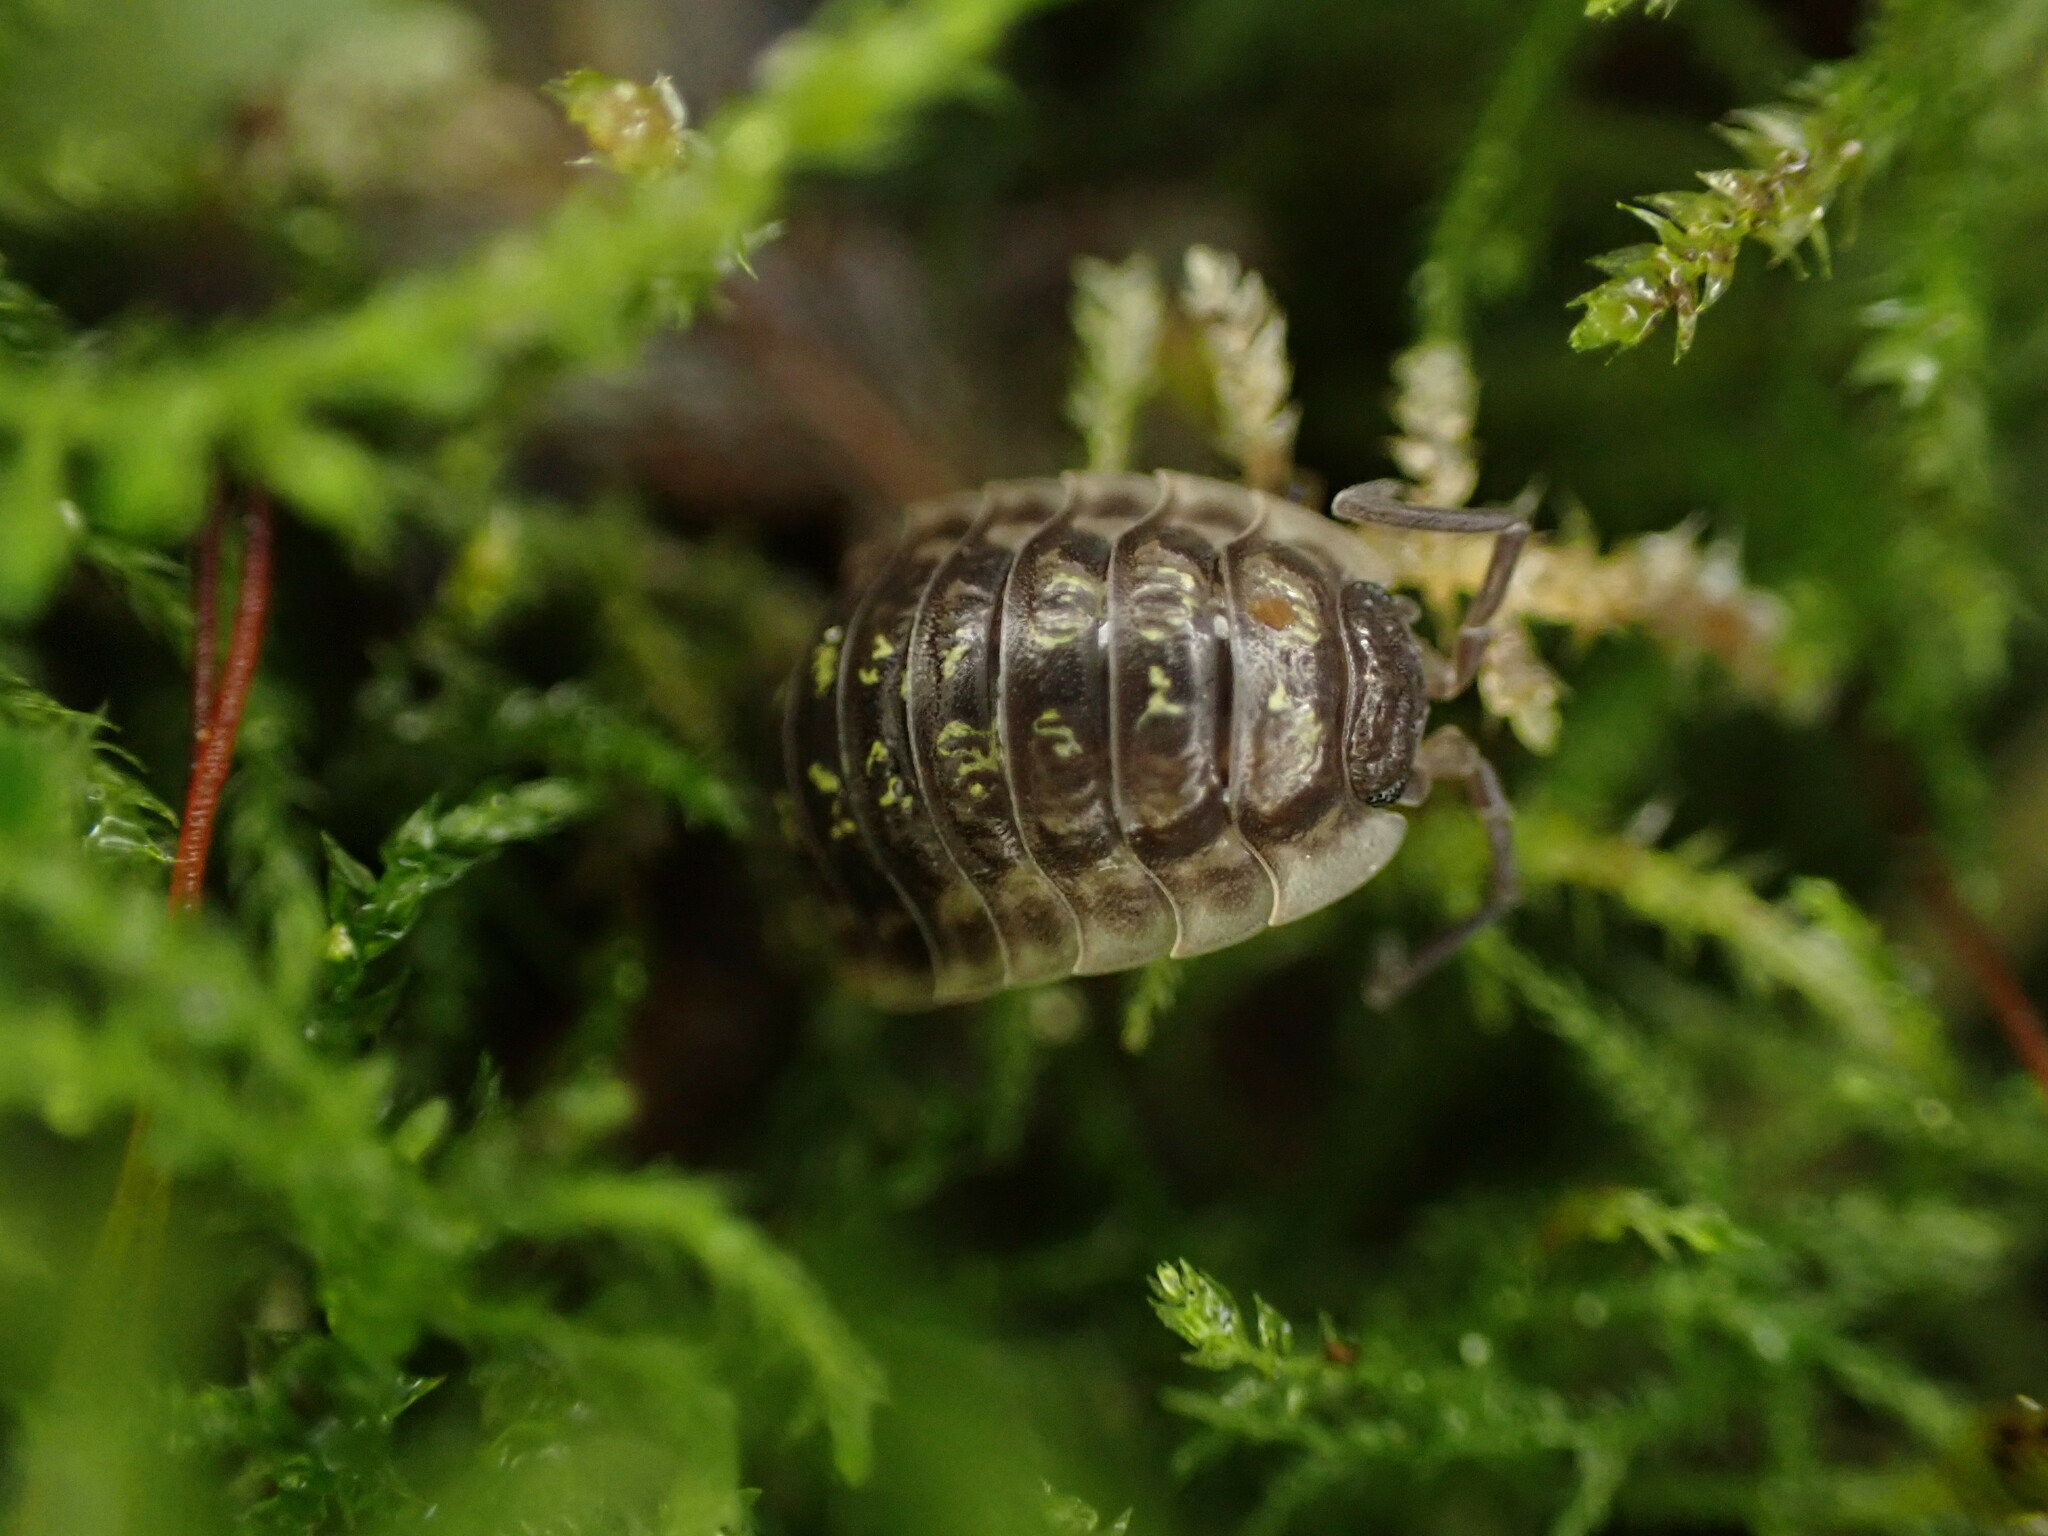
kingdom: Animalia
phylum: Arthropoda
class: Malacostraca
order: Isopoda
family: Oniscidae
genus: Oniscus
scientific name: Oniscus asellus
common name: Common shiny woodlouse
